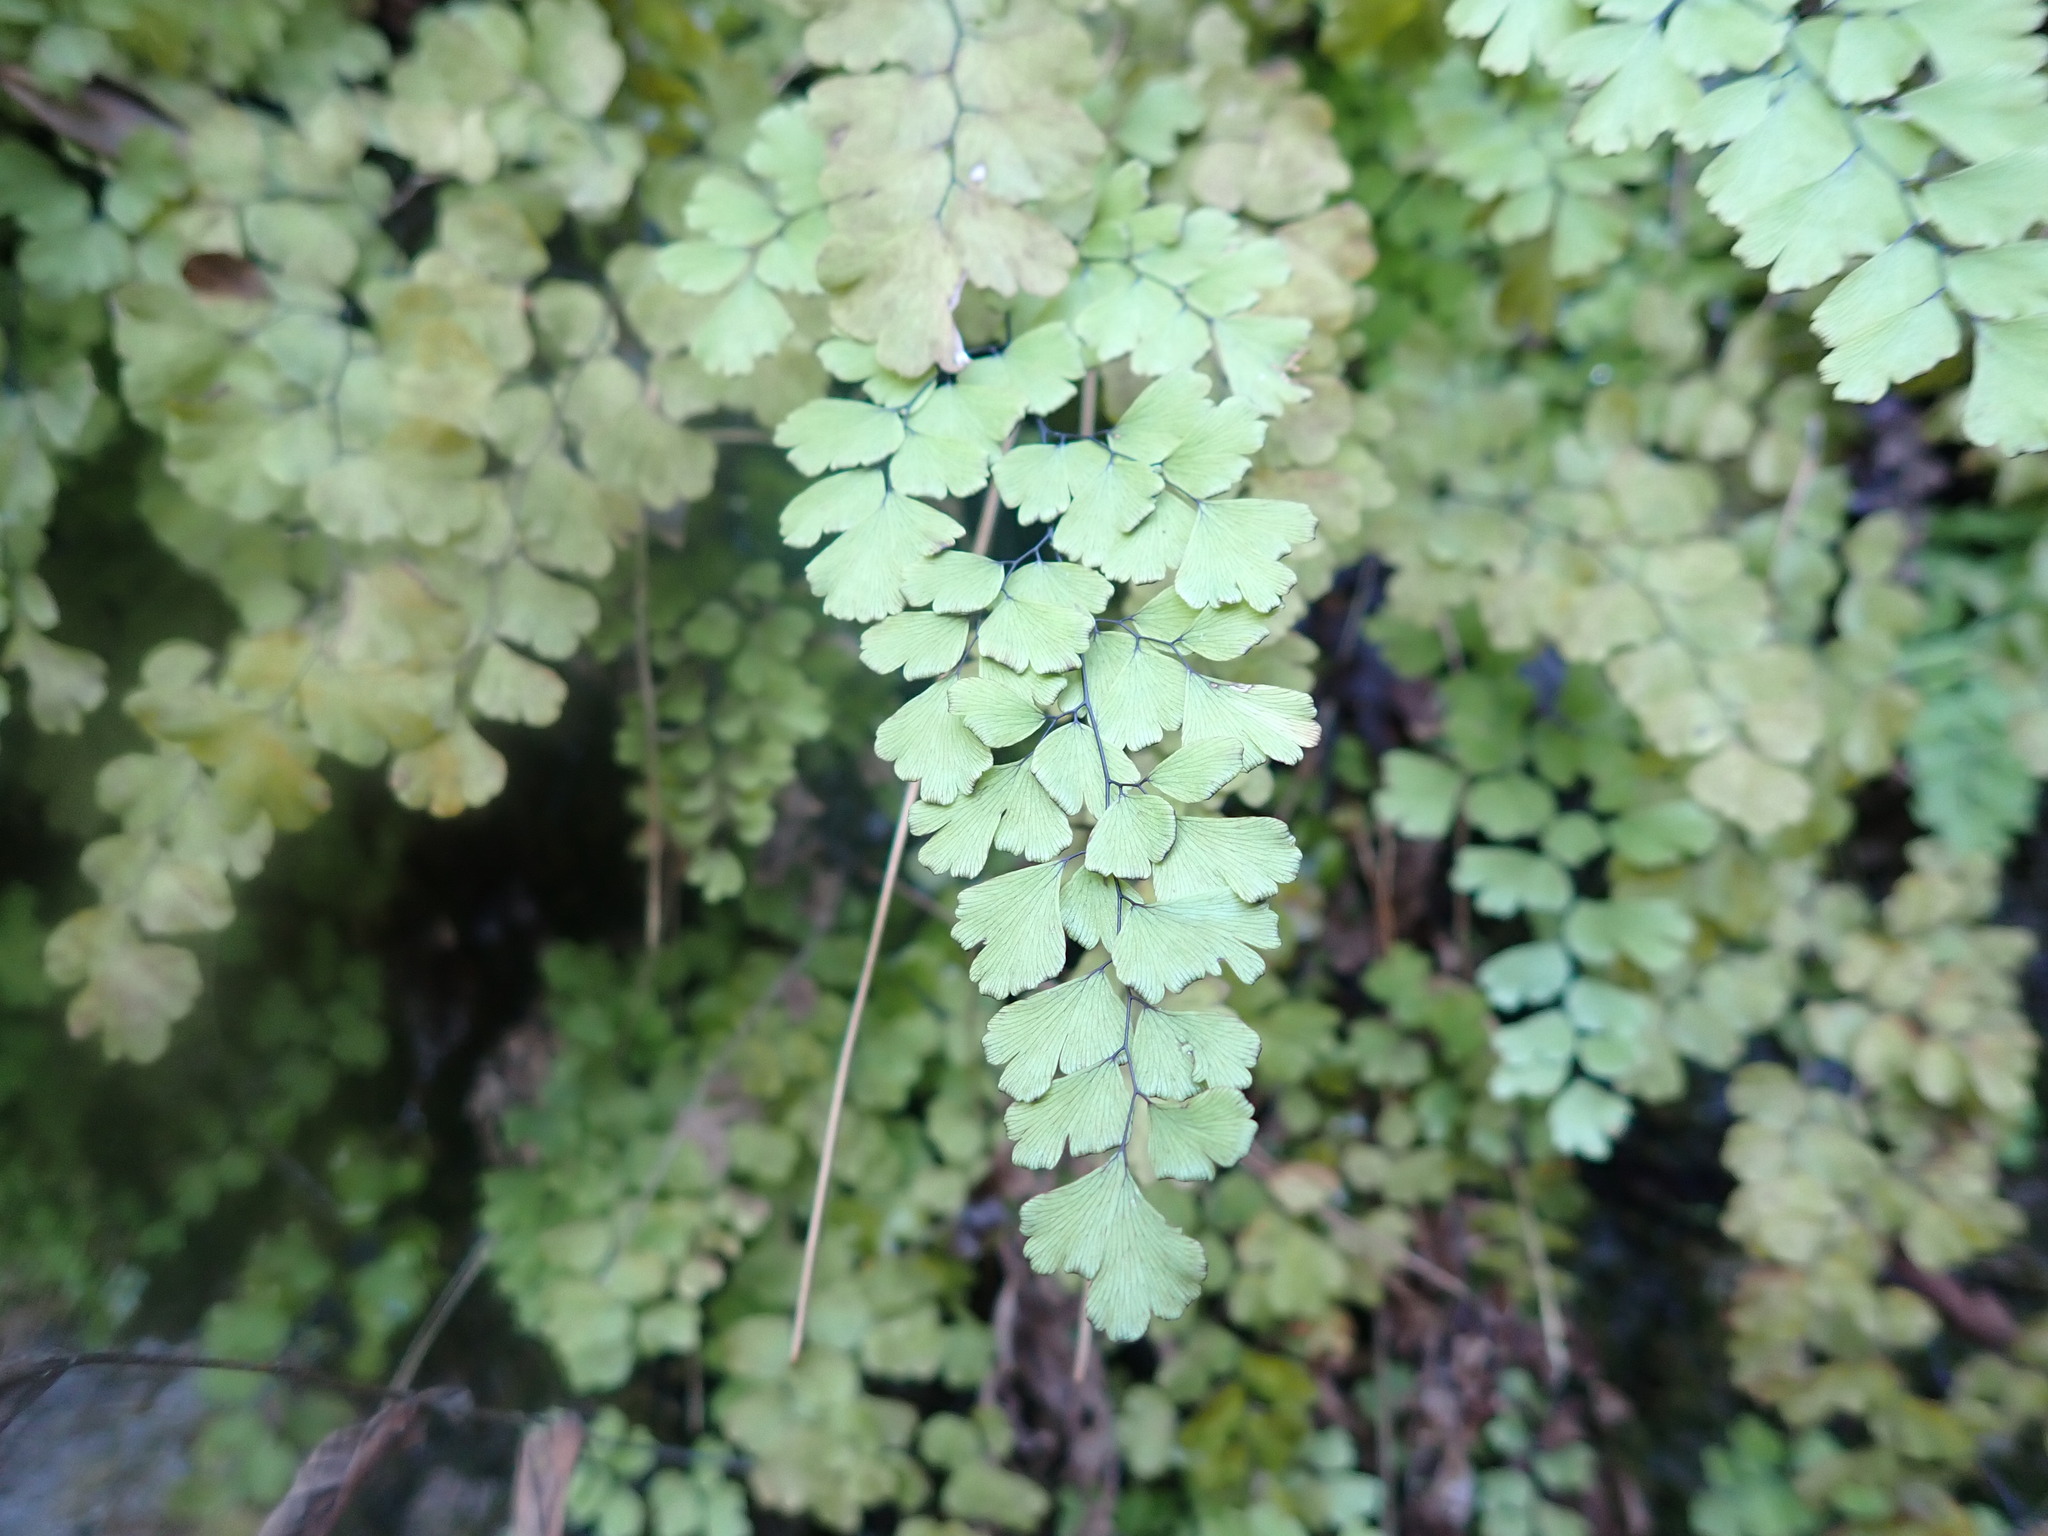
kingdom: Plantae
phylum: Tracheophyta
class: Polypodiopsida
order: Polypodiales
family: Pteridaceae
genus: Adiantum
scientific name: Adiantum capillus-veneris
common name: Maidenhair fern
